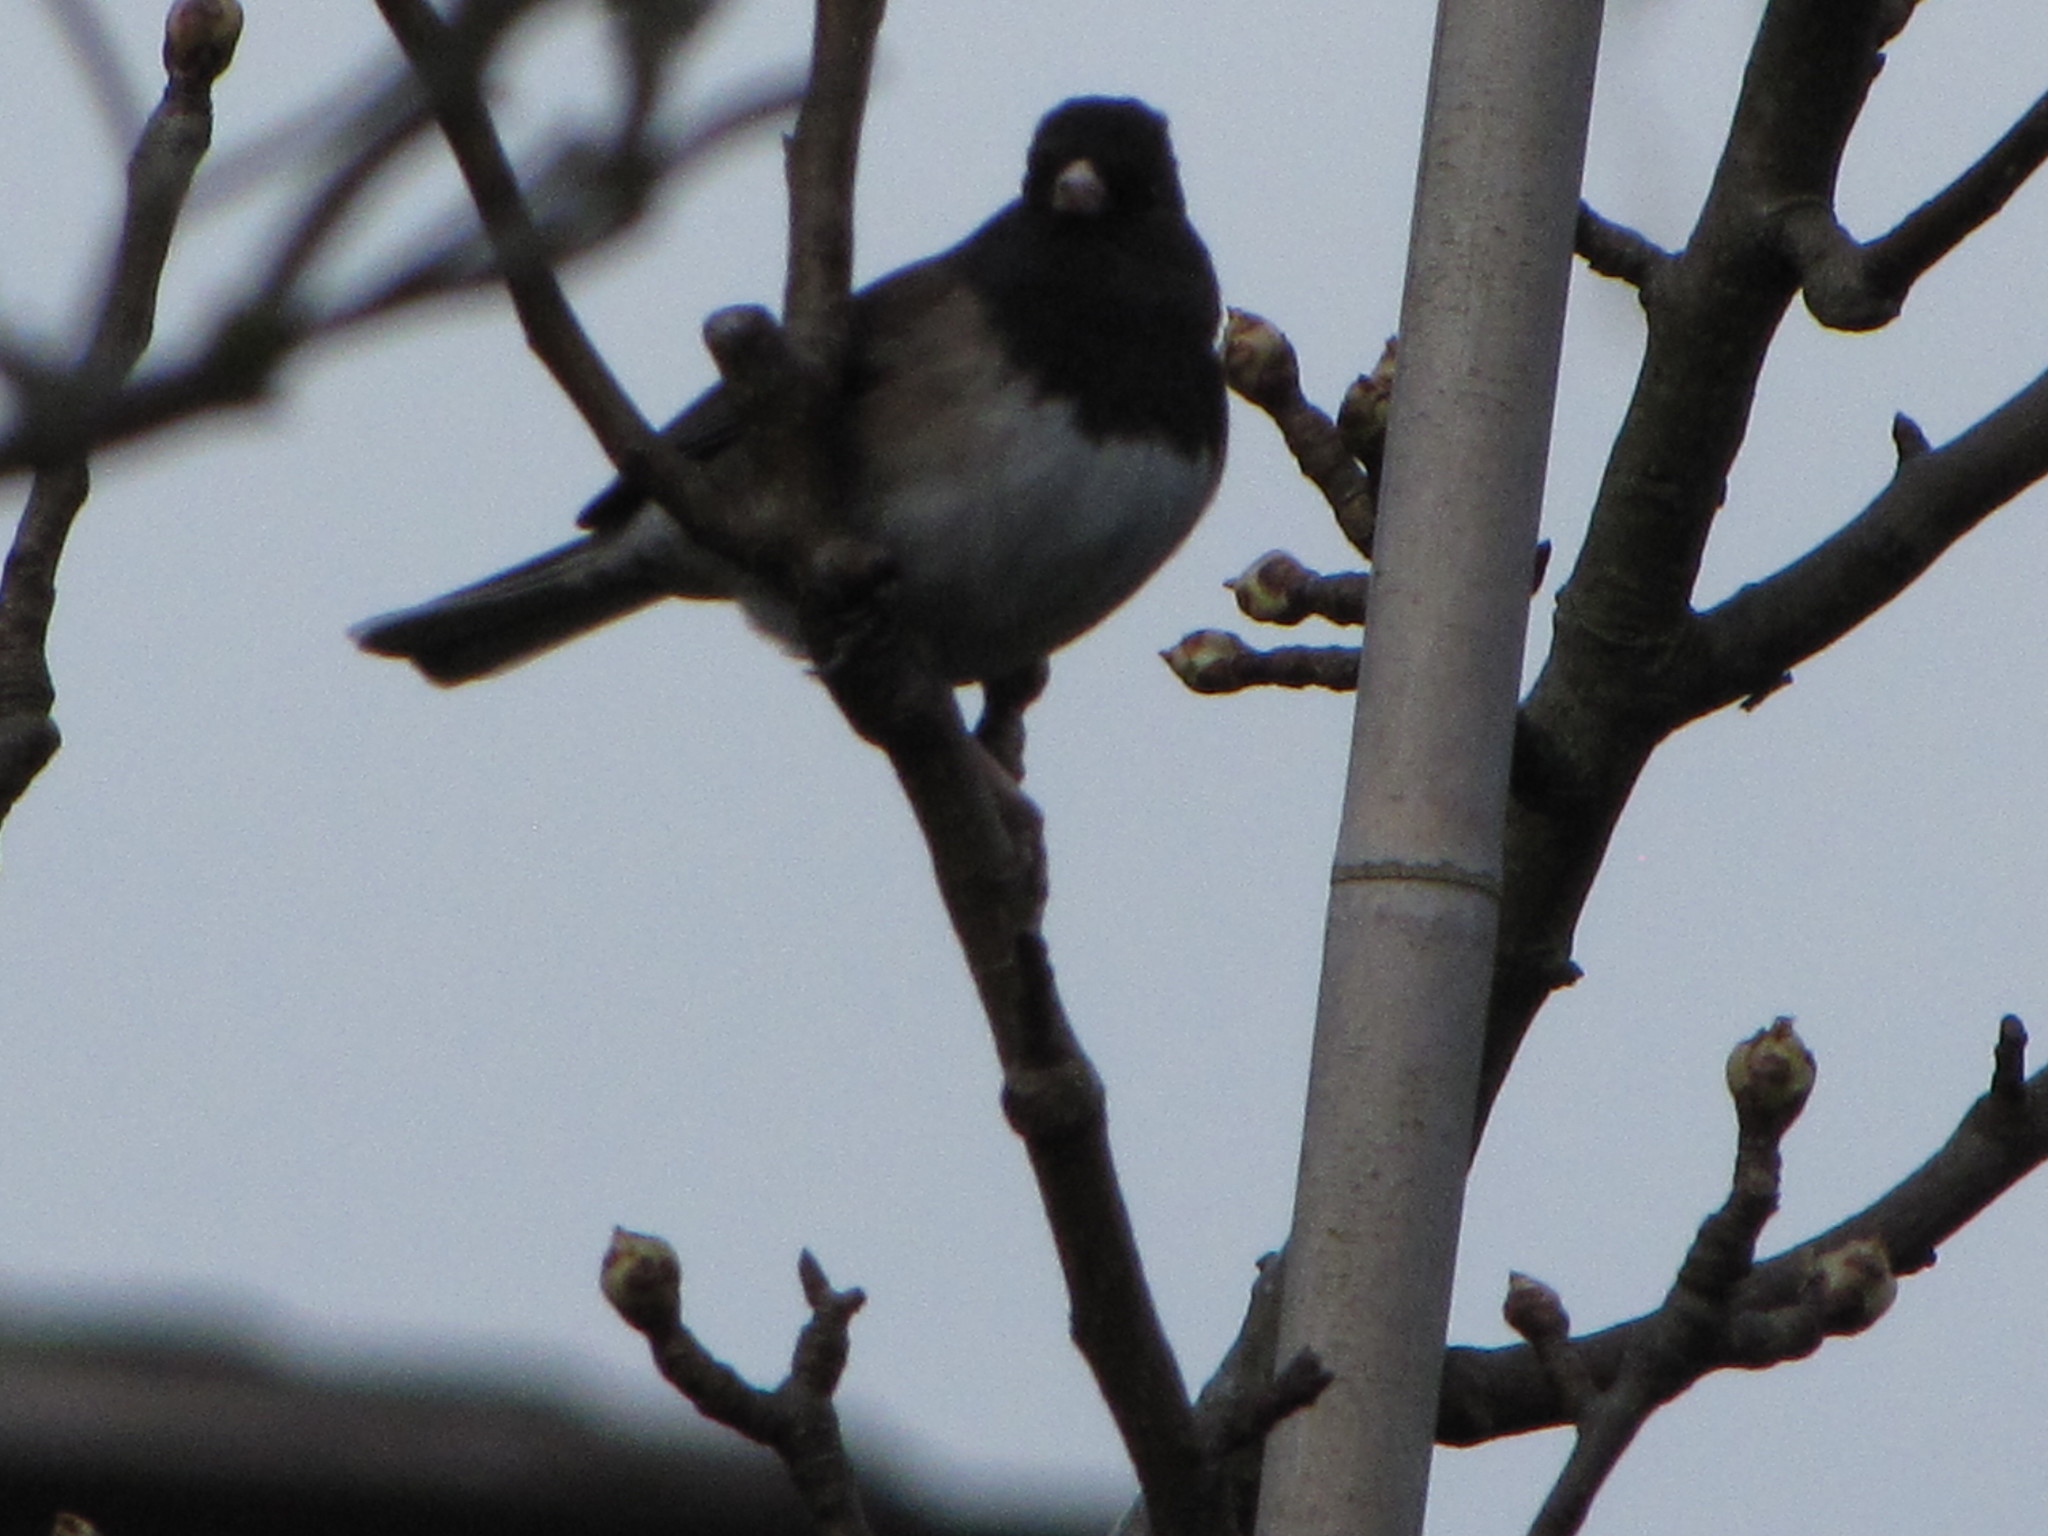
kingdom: Animalia
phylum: Chordata
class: Aves
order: Passeriformes
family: Passerellidae
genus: Junco
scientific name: Junco hyemalis
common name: Dark-eyed junco
